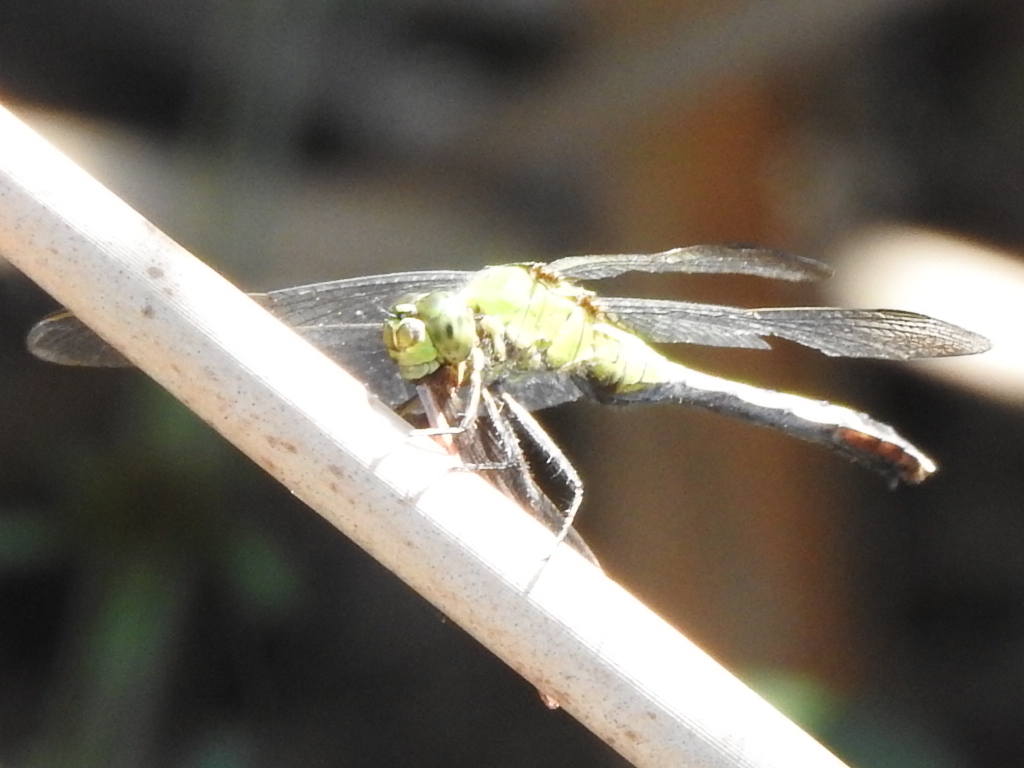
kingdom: Animalia
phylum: Arthropoda
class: Insecta
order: Odonata
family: Libellulidae
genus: Erythemis
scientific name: Erythemis simplicicollis
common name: Eastern pondhawk
